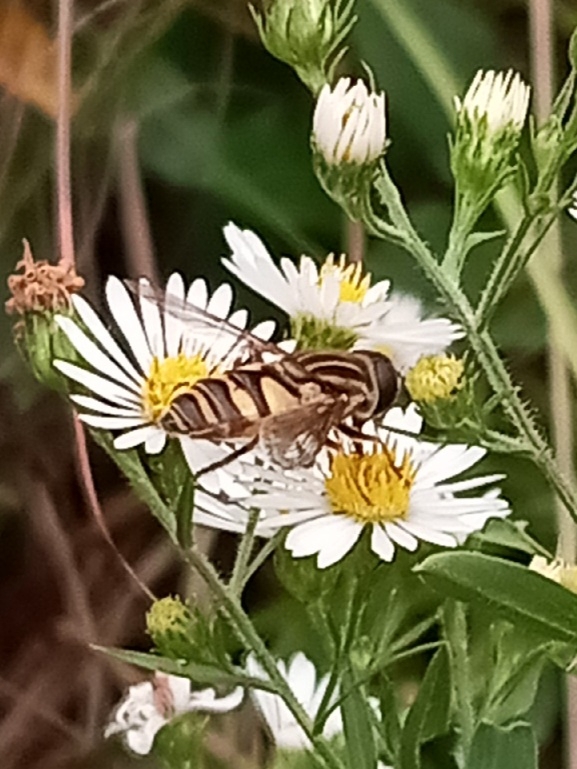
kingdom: Animalia
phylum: Arthropoda
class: Insecta
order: Diptera
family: Syrphidae
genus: Helophilus
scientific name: Helophilus fasciatus
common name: Narrow-headed marsh fly
